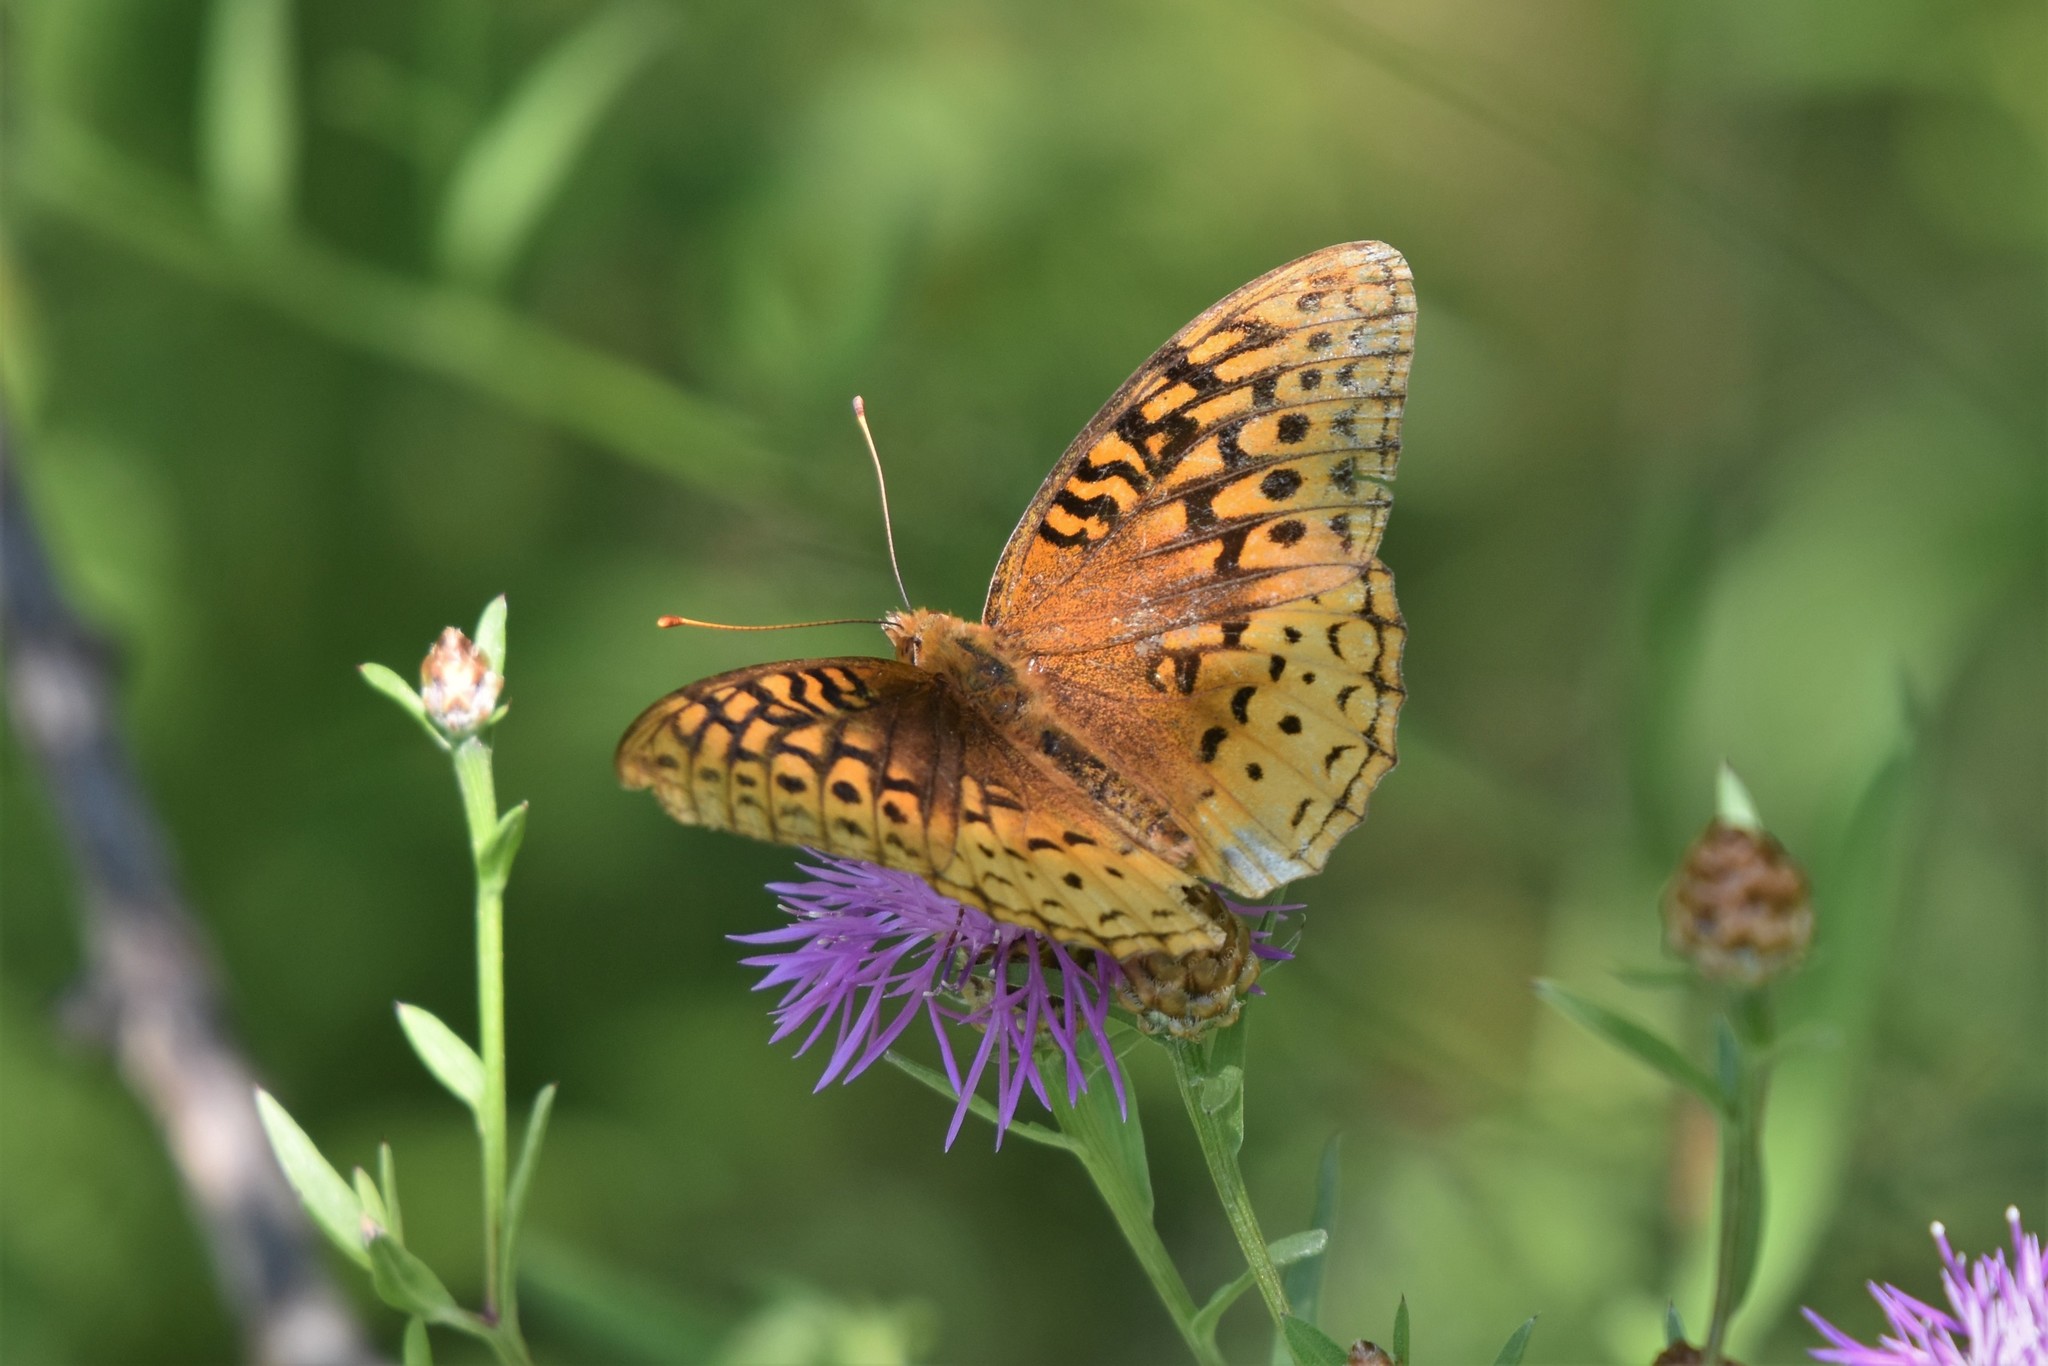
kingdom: Animalia
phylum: Arthropoda
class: Insecta
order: Lepidoptera
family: Nymphalidae
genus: Speyeria
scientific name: Speyeria cybele
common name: Great spangled fritillary
